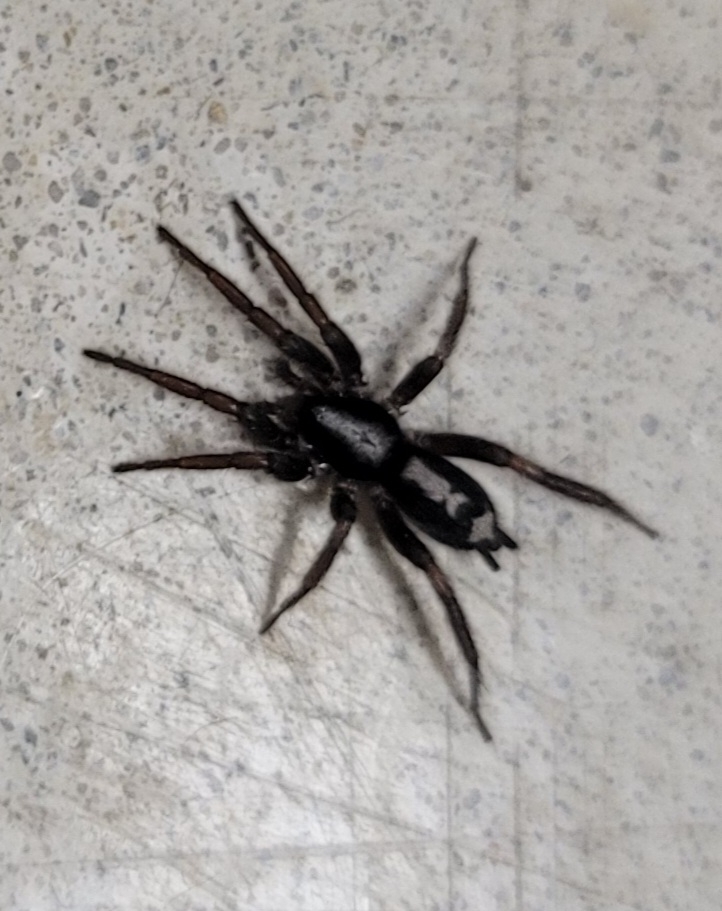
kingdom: Animalia
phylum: Arthropoda
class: Arachnida
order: Araneae
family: Gnaphosidae
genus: Herpyllus
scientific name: Herpyllus ecclesiasticus
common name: Eastern parson spider
